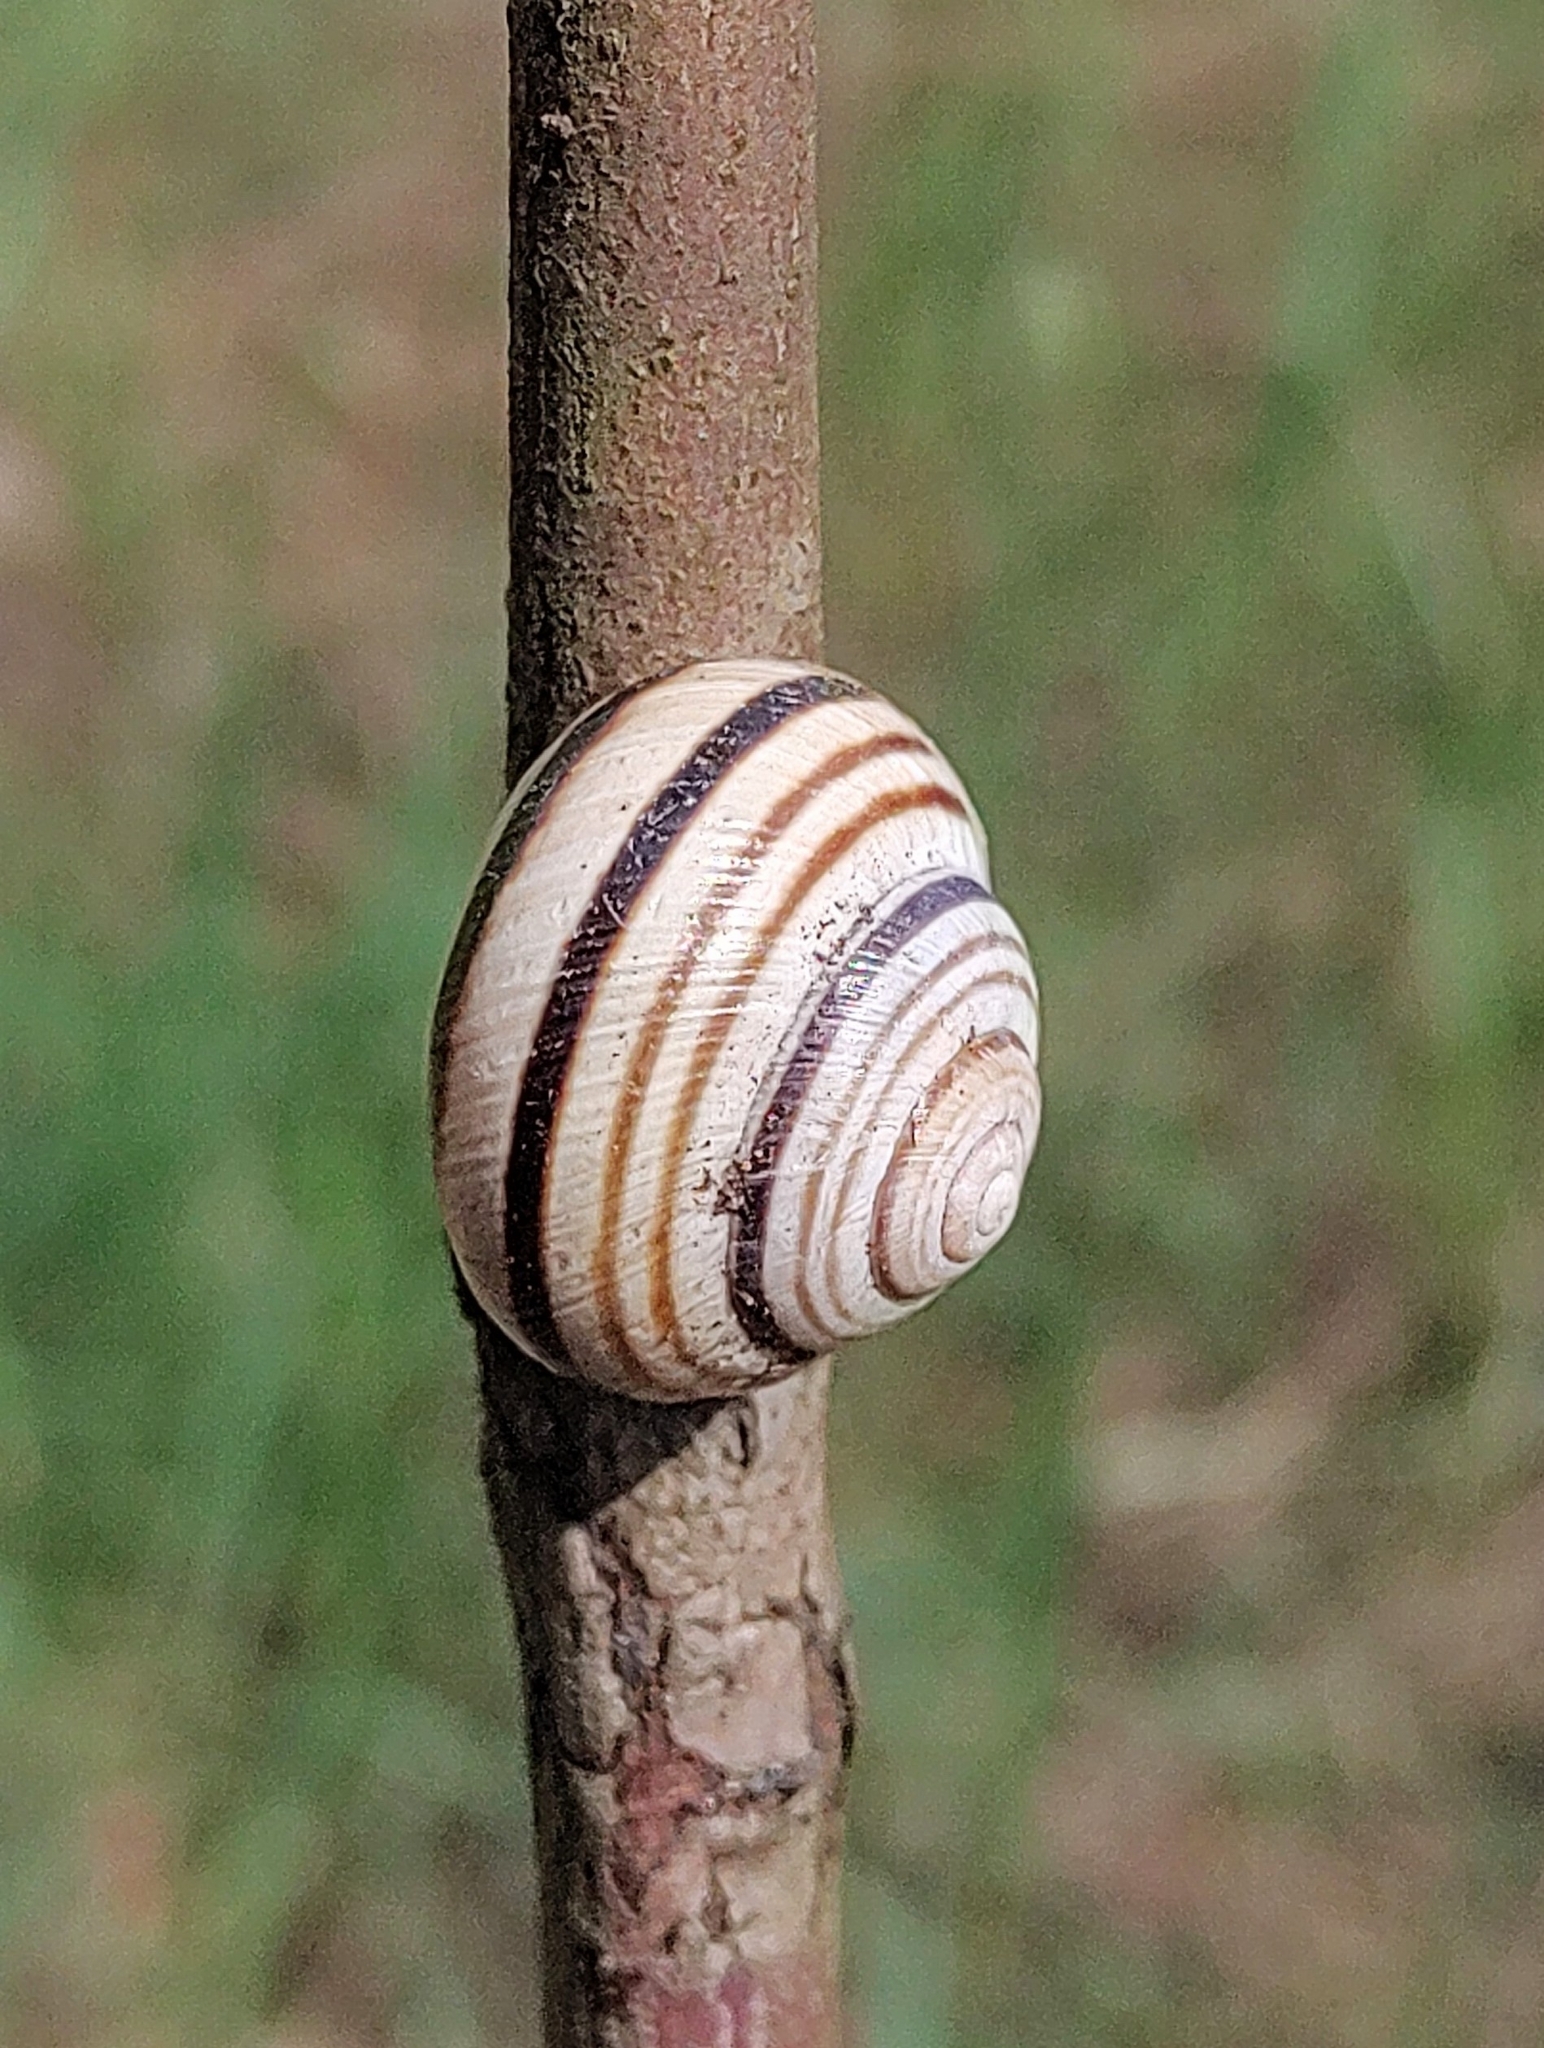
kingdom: Animalia
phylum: Mollusca
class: Gastropoda
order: Stylommatophora
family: Helicidae
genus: Caucasotachea
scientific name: Caucasotachea vindobonensis
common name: European helicid land snail
